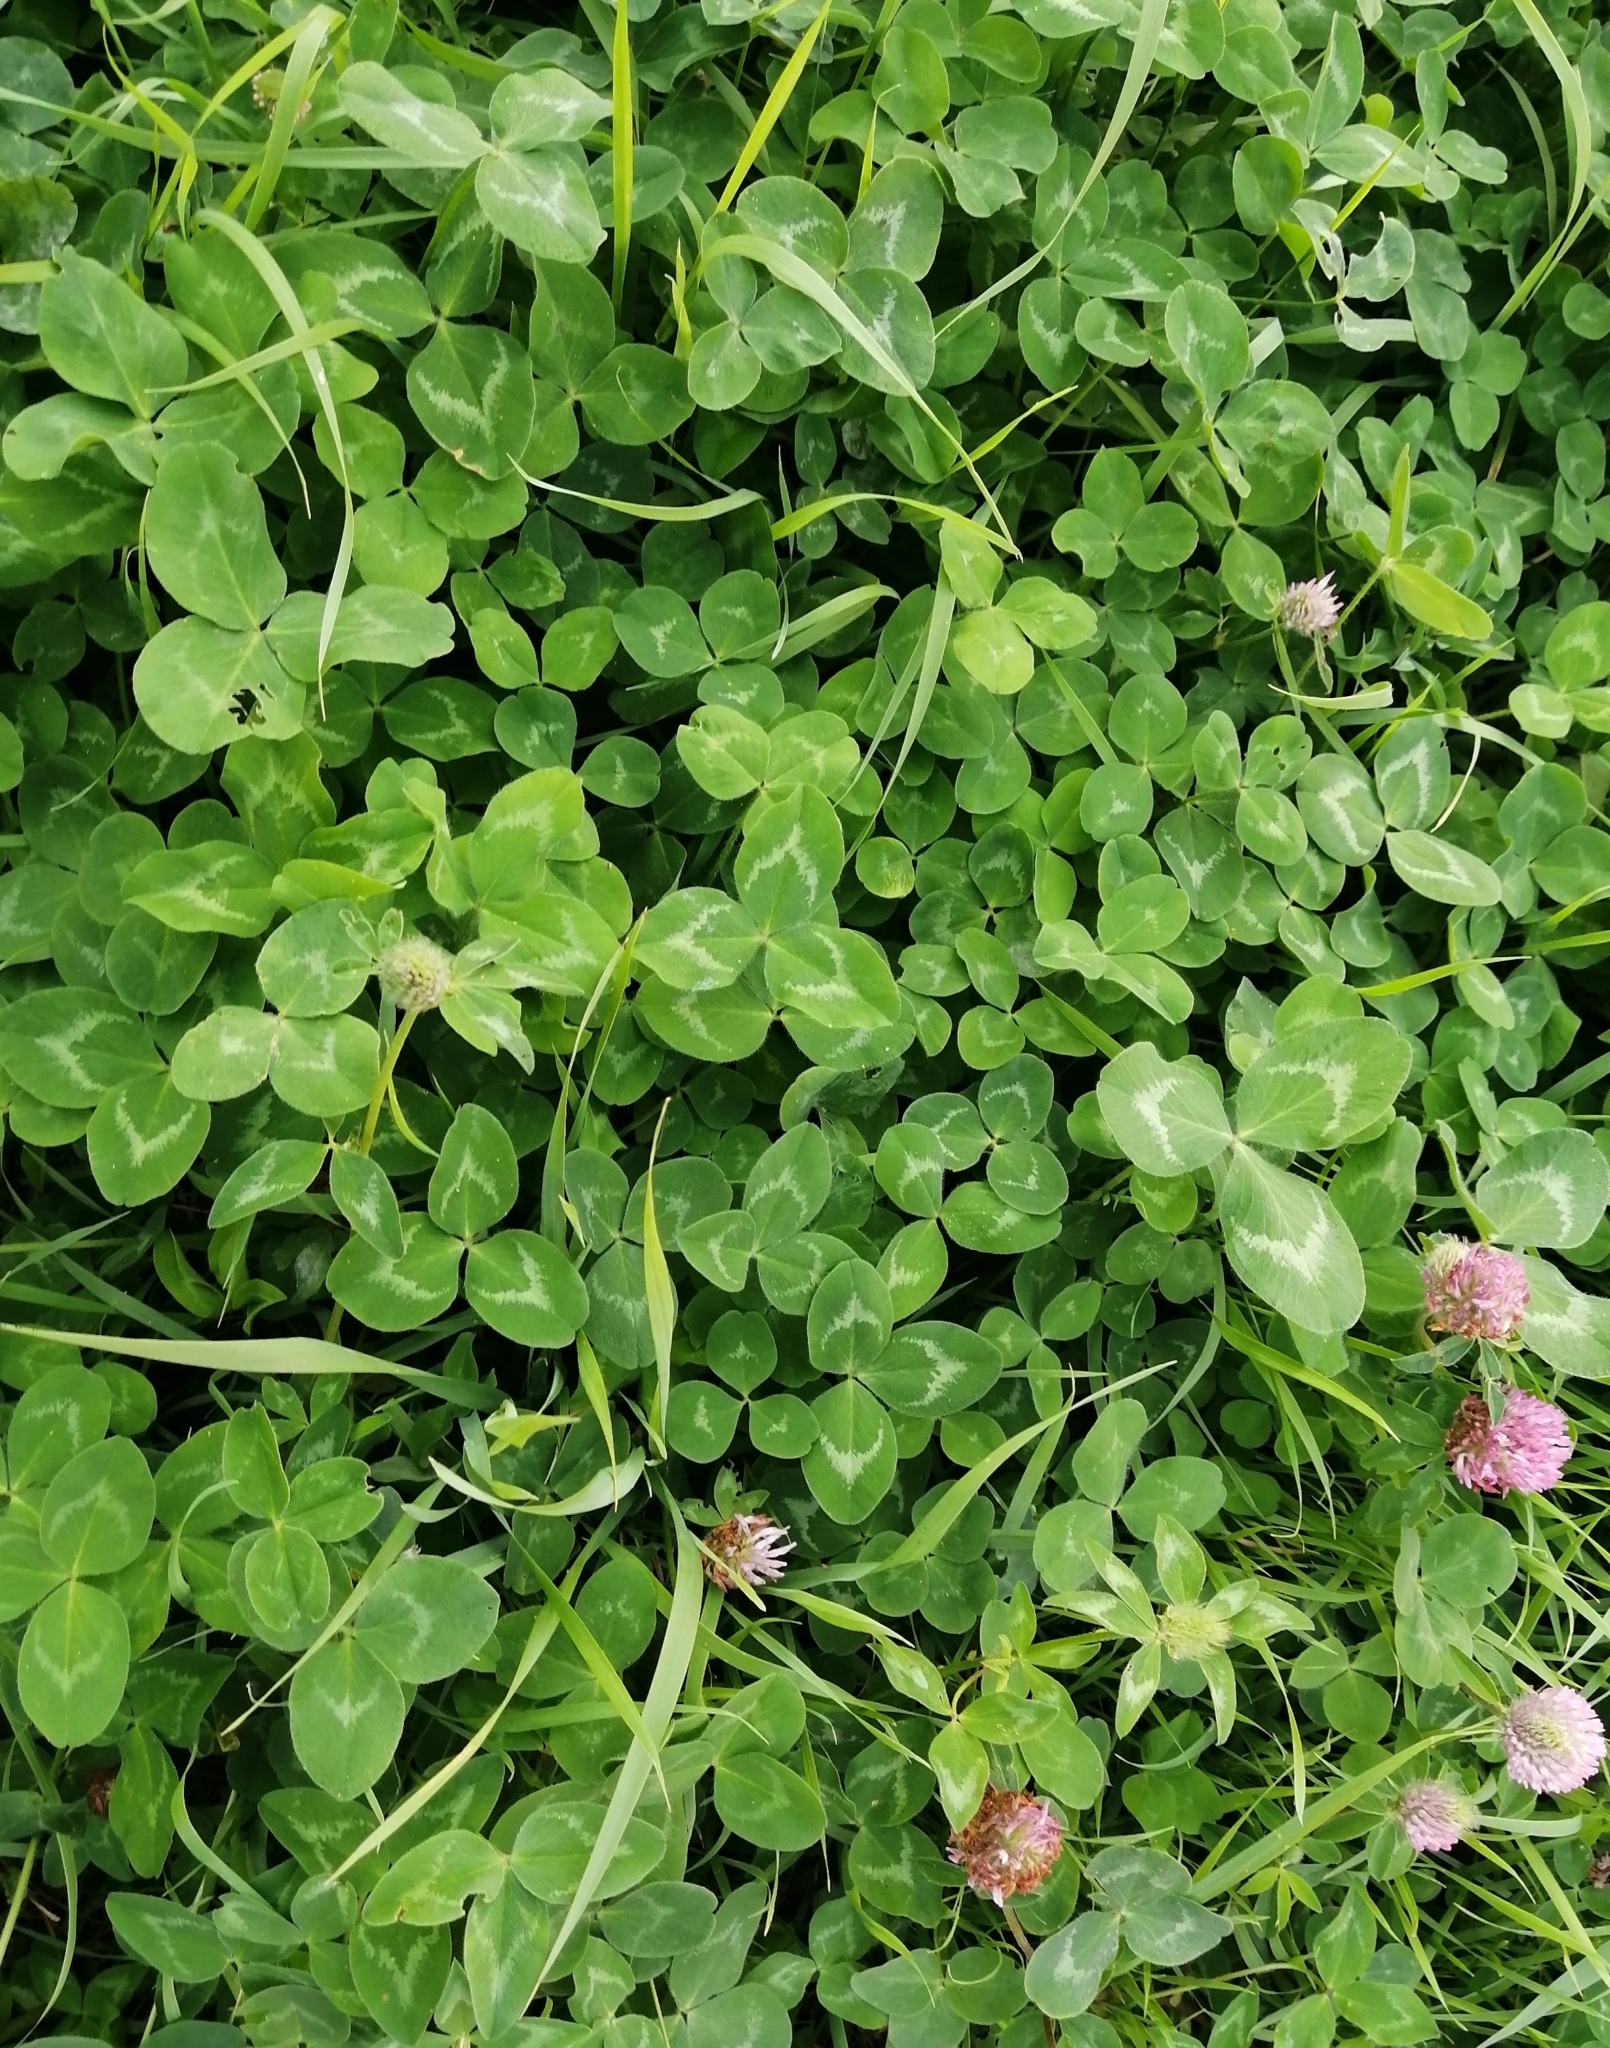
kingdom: Plantae
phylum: Tracheophyta
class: Magnoliopsida
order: Fabales
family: Fabaceae
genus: Trifolium
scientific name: Trifolium pratense
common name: Red clover
